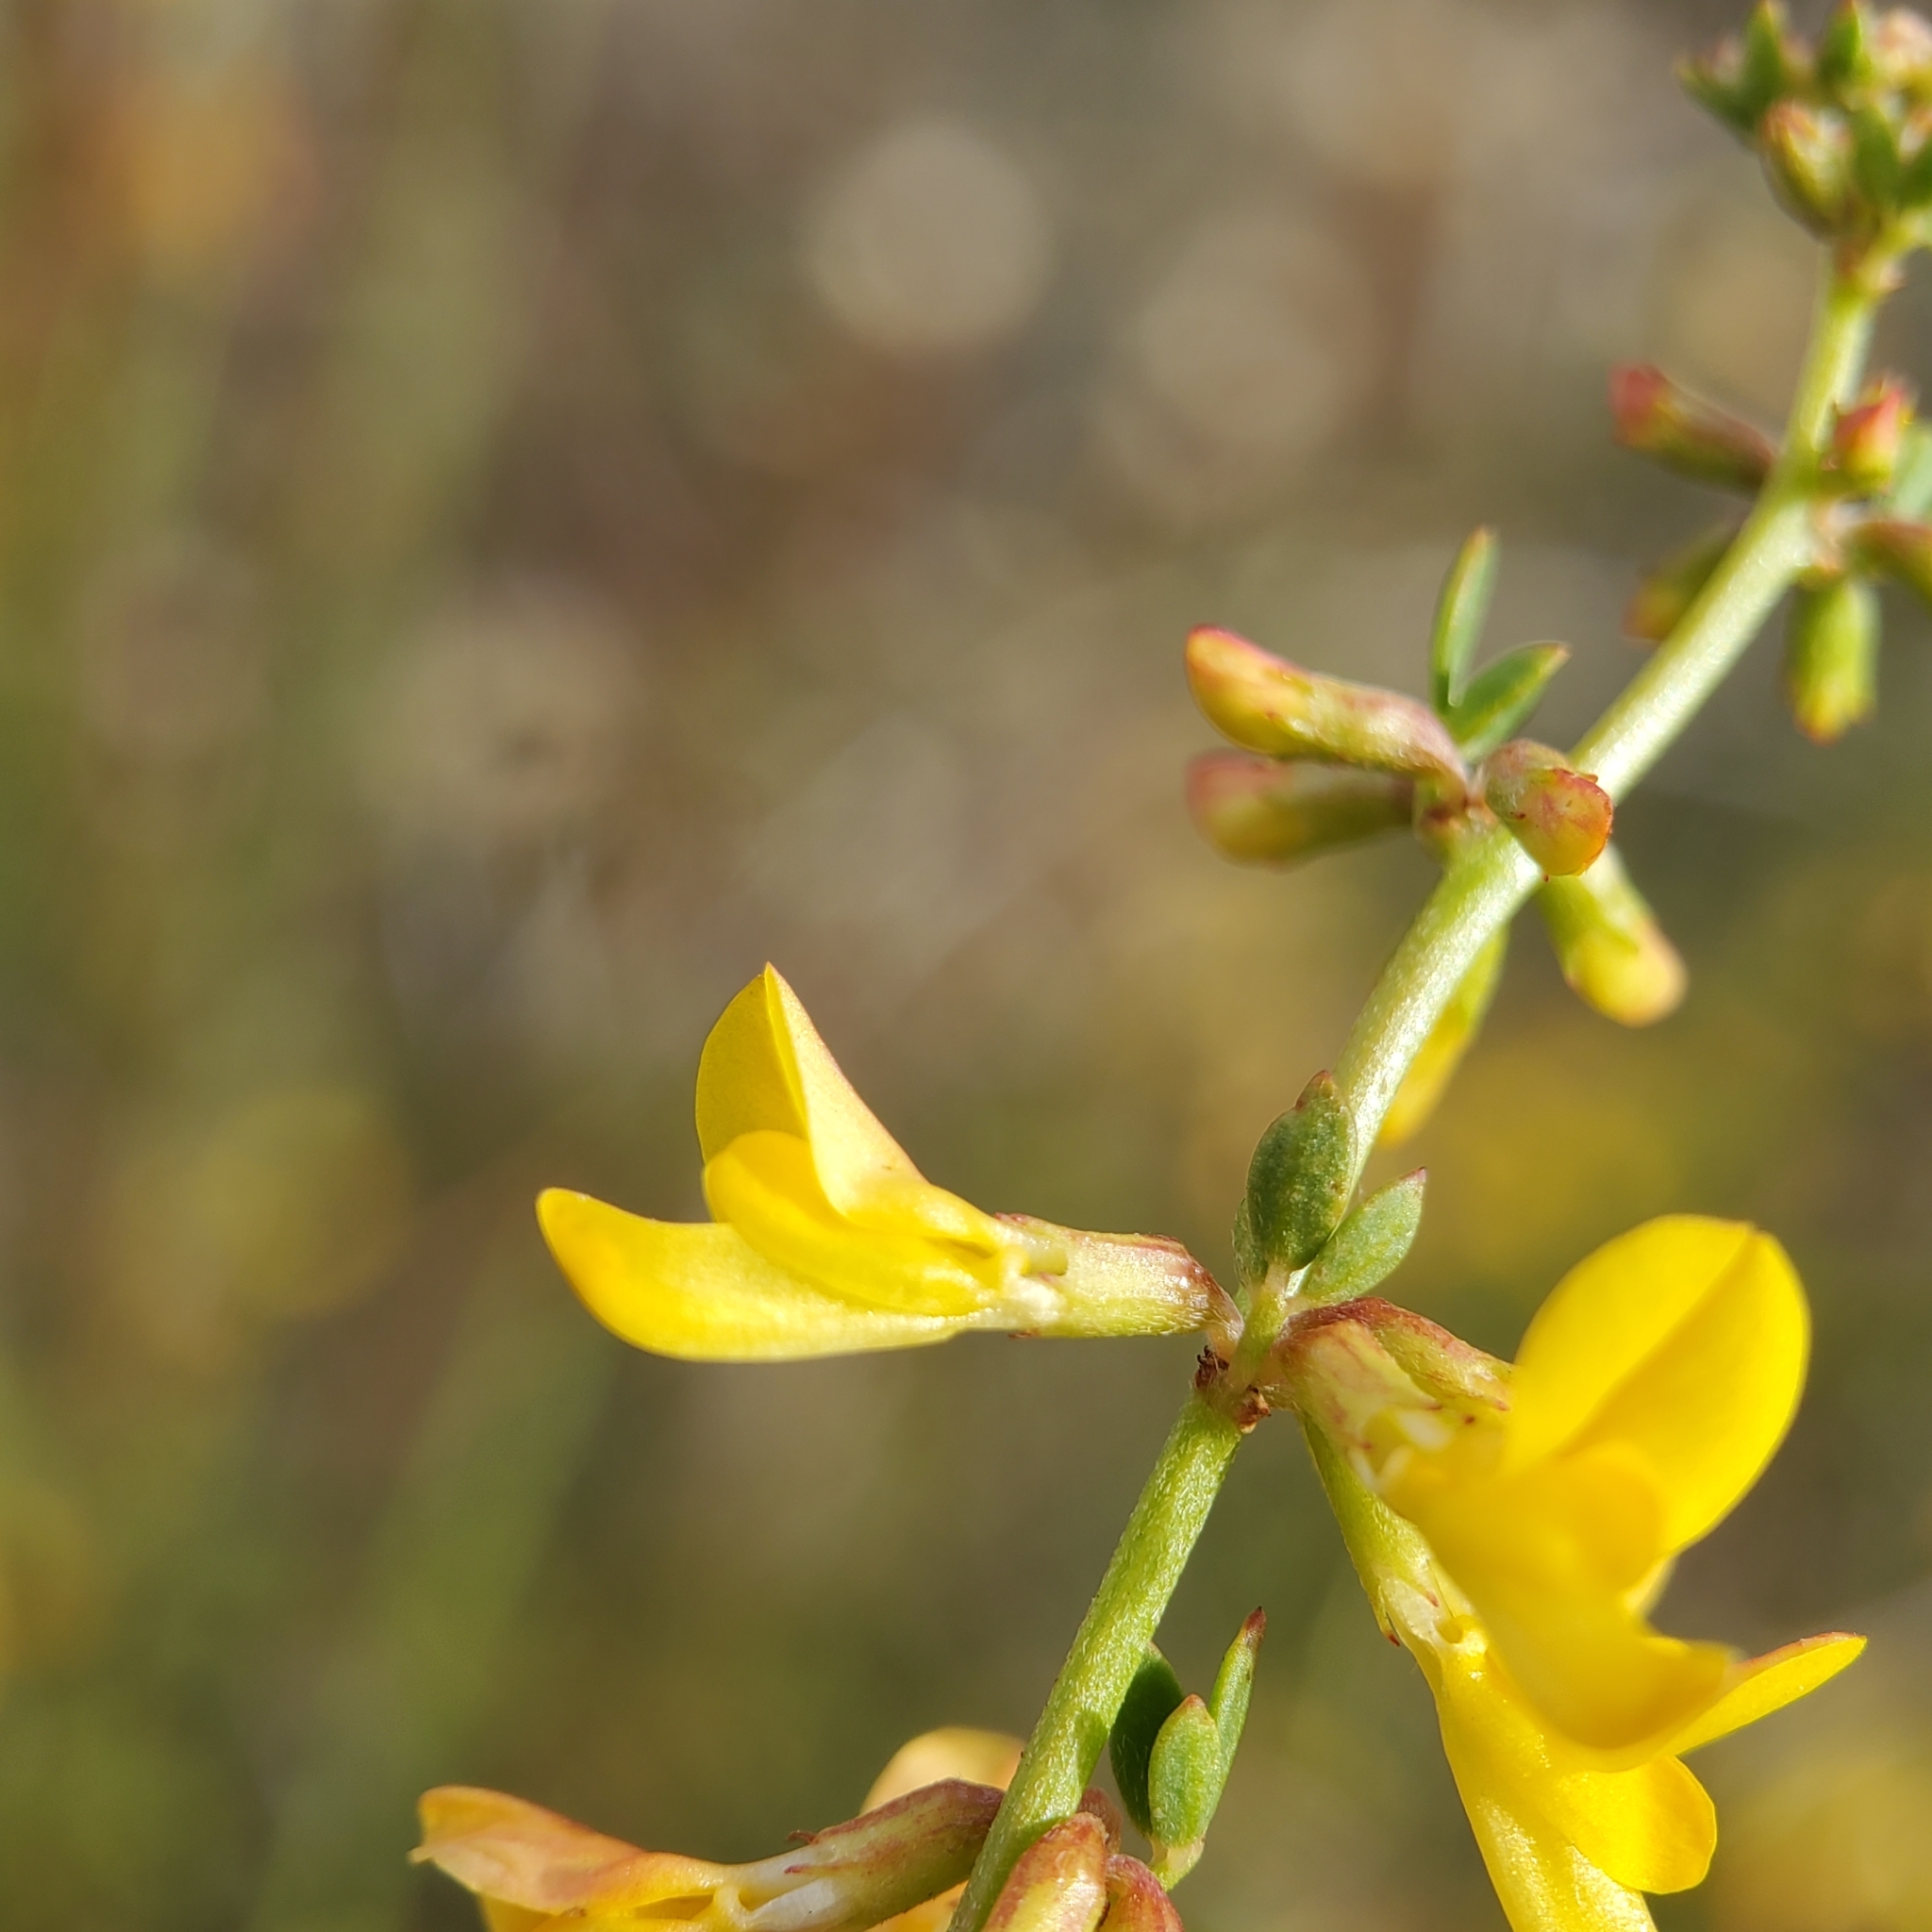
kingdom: Plantae
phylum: Tracheophyta
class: Magnoliopsida
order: Fabales
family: Fabaceae
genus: Acmispon
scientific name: Acmispon glaber
